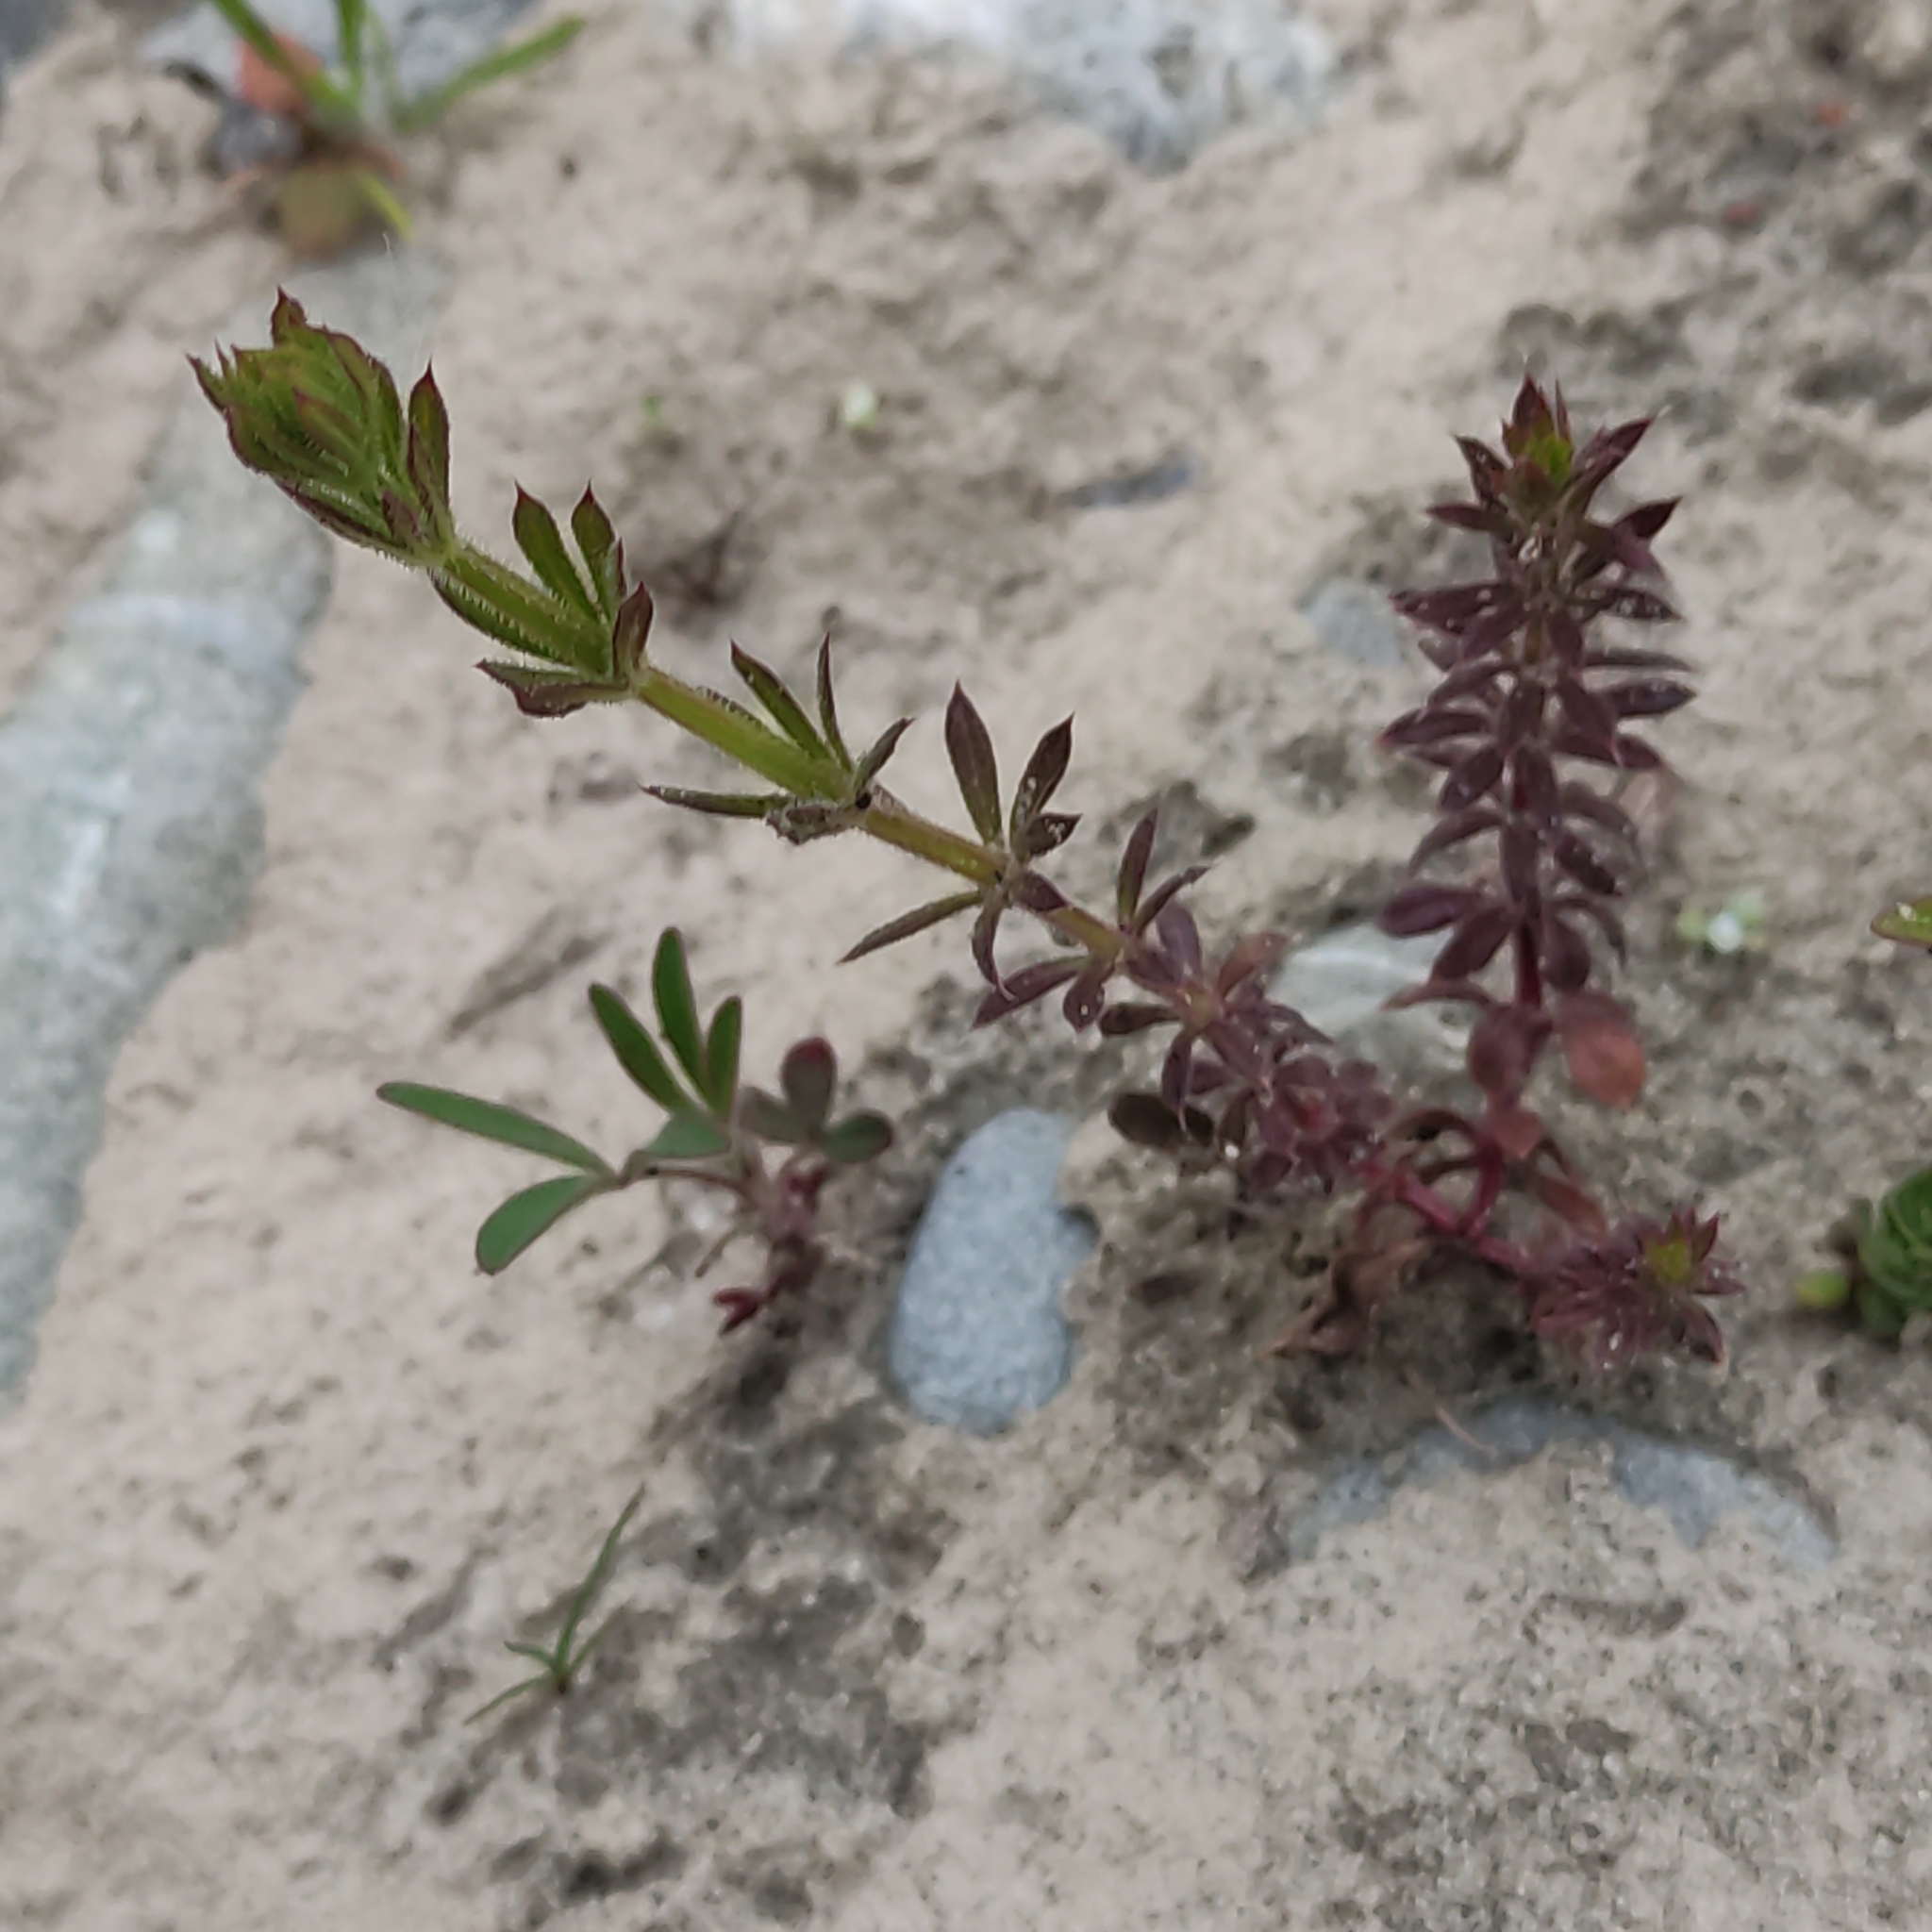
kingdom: Plantae
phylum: Tracheophyta
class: Magnoliopsida
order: Gentianales
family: Rubiaceae
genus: Galium
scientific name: Galium aparine
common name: Cleavers
